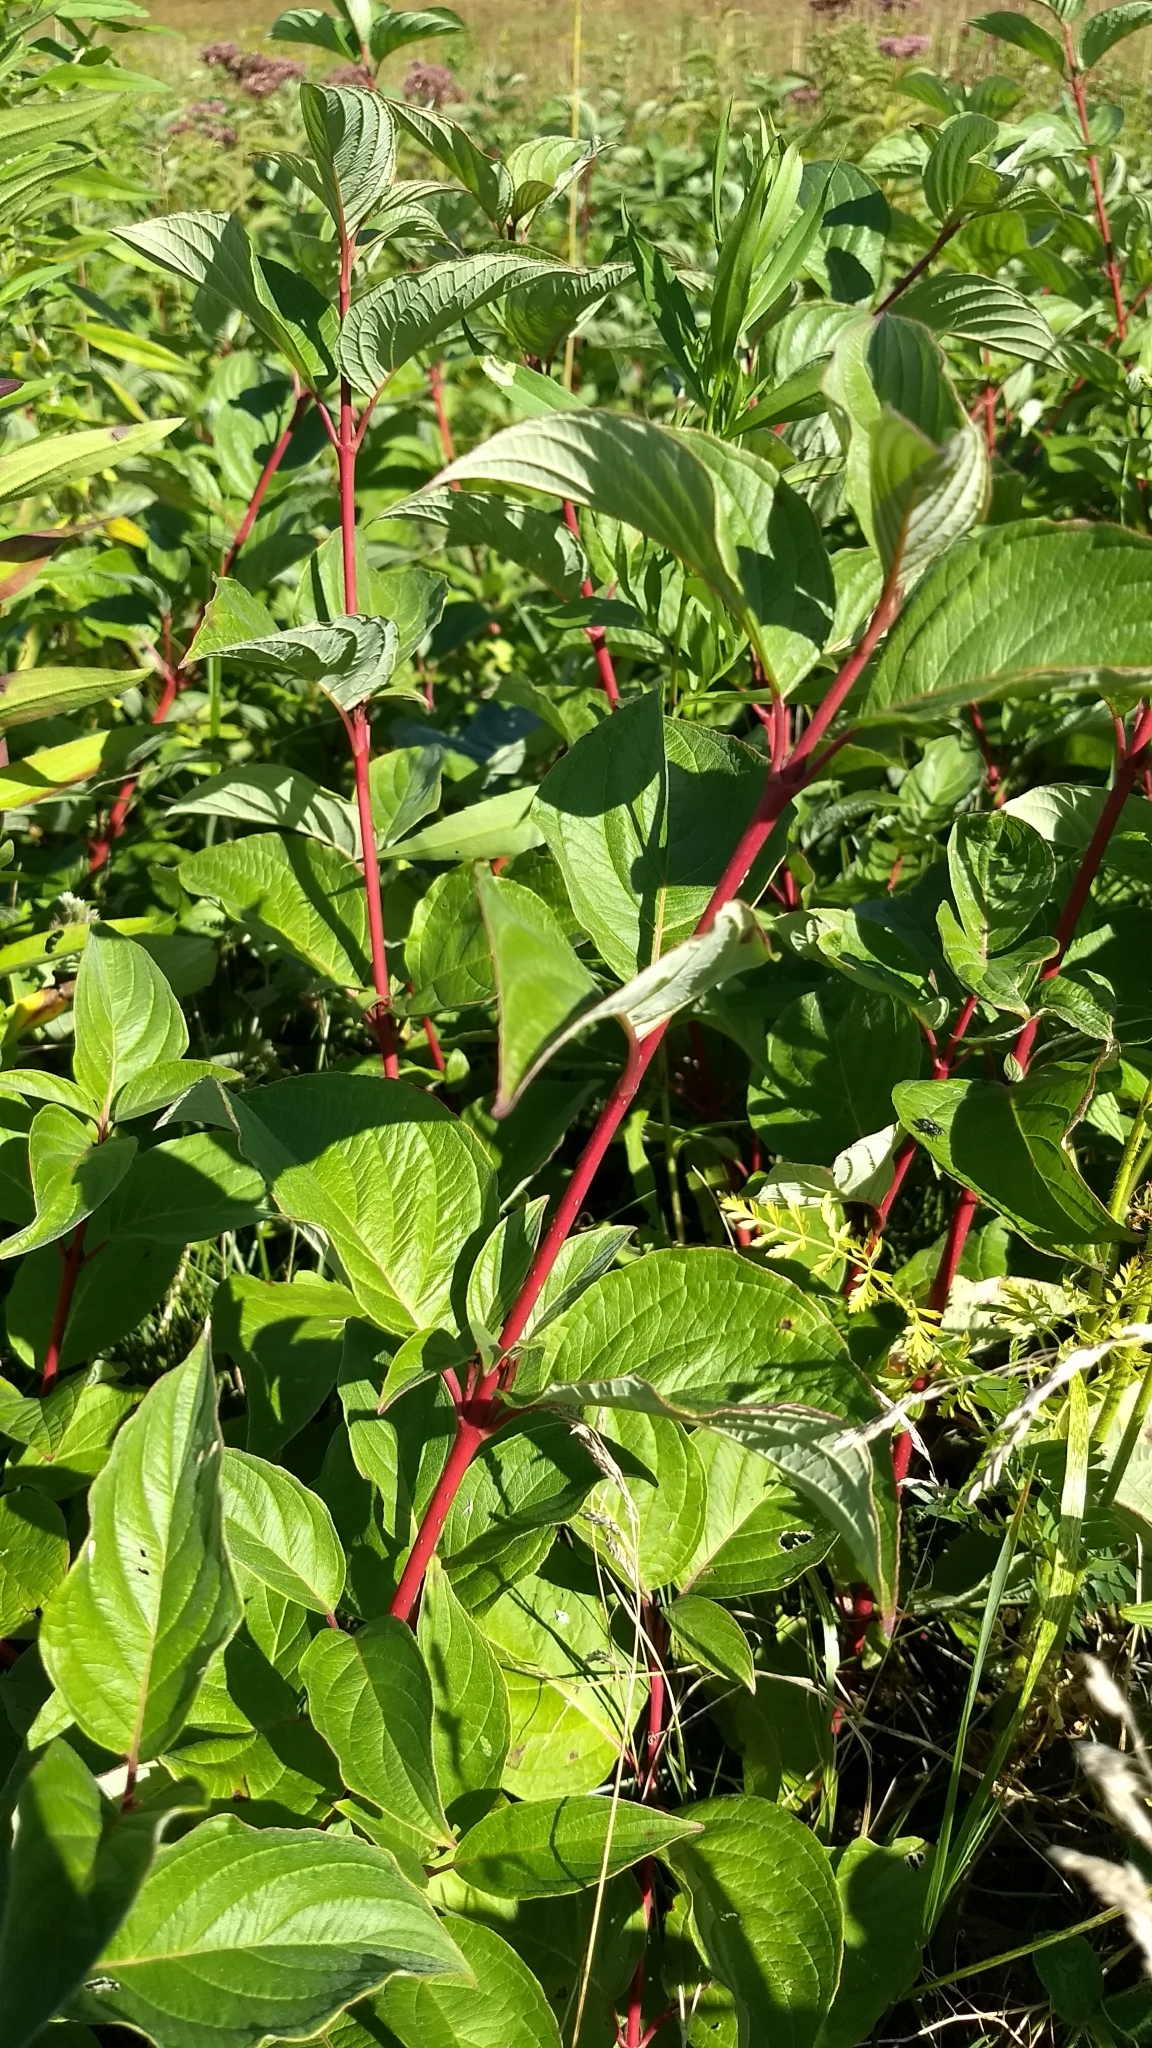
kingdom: Plantae
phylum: Tracheophyta
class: Magnoliopsida
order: Cornales
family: Cornaceae
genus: Cornus
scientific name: Cornus sericea
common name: Red-osier dogwood
